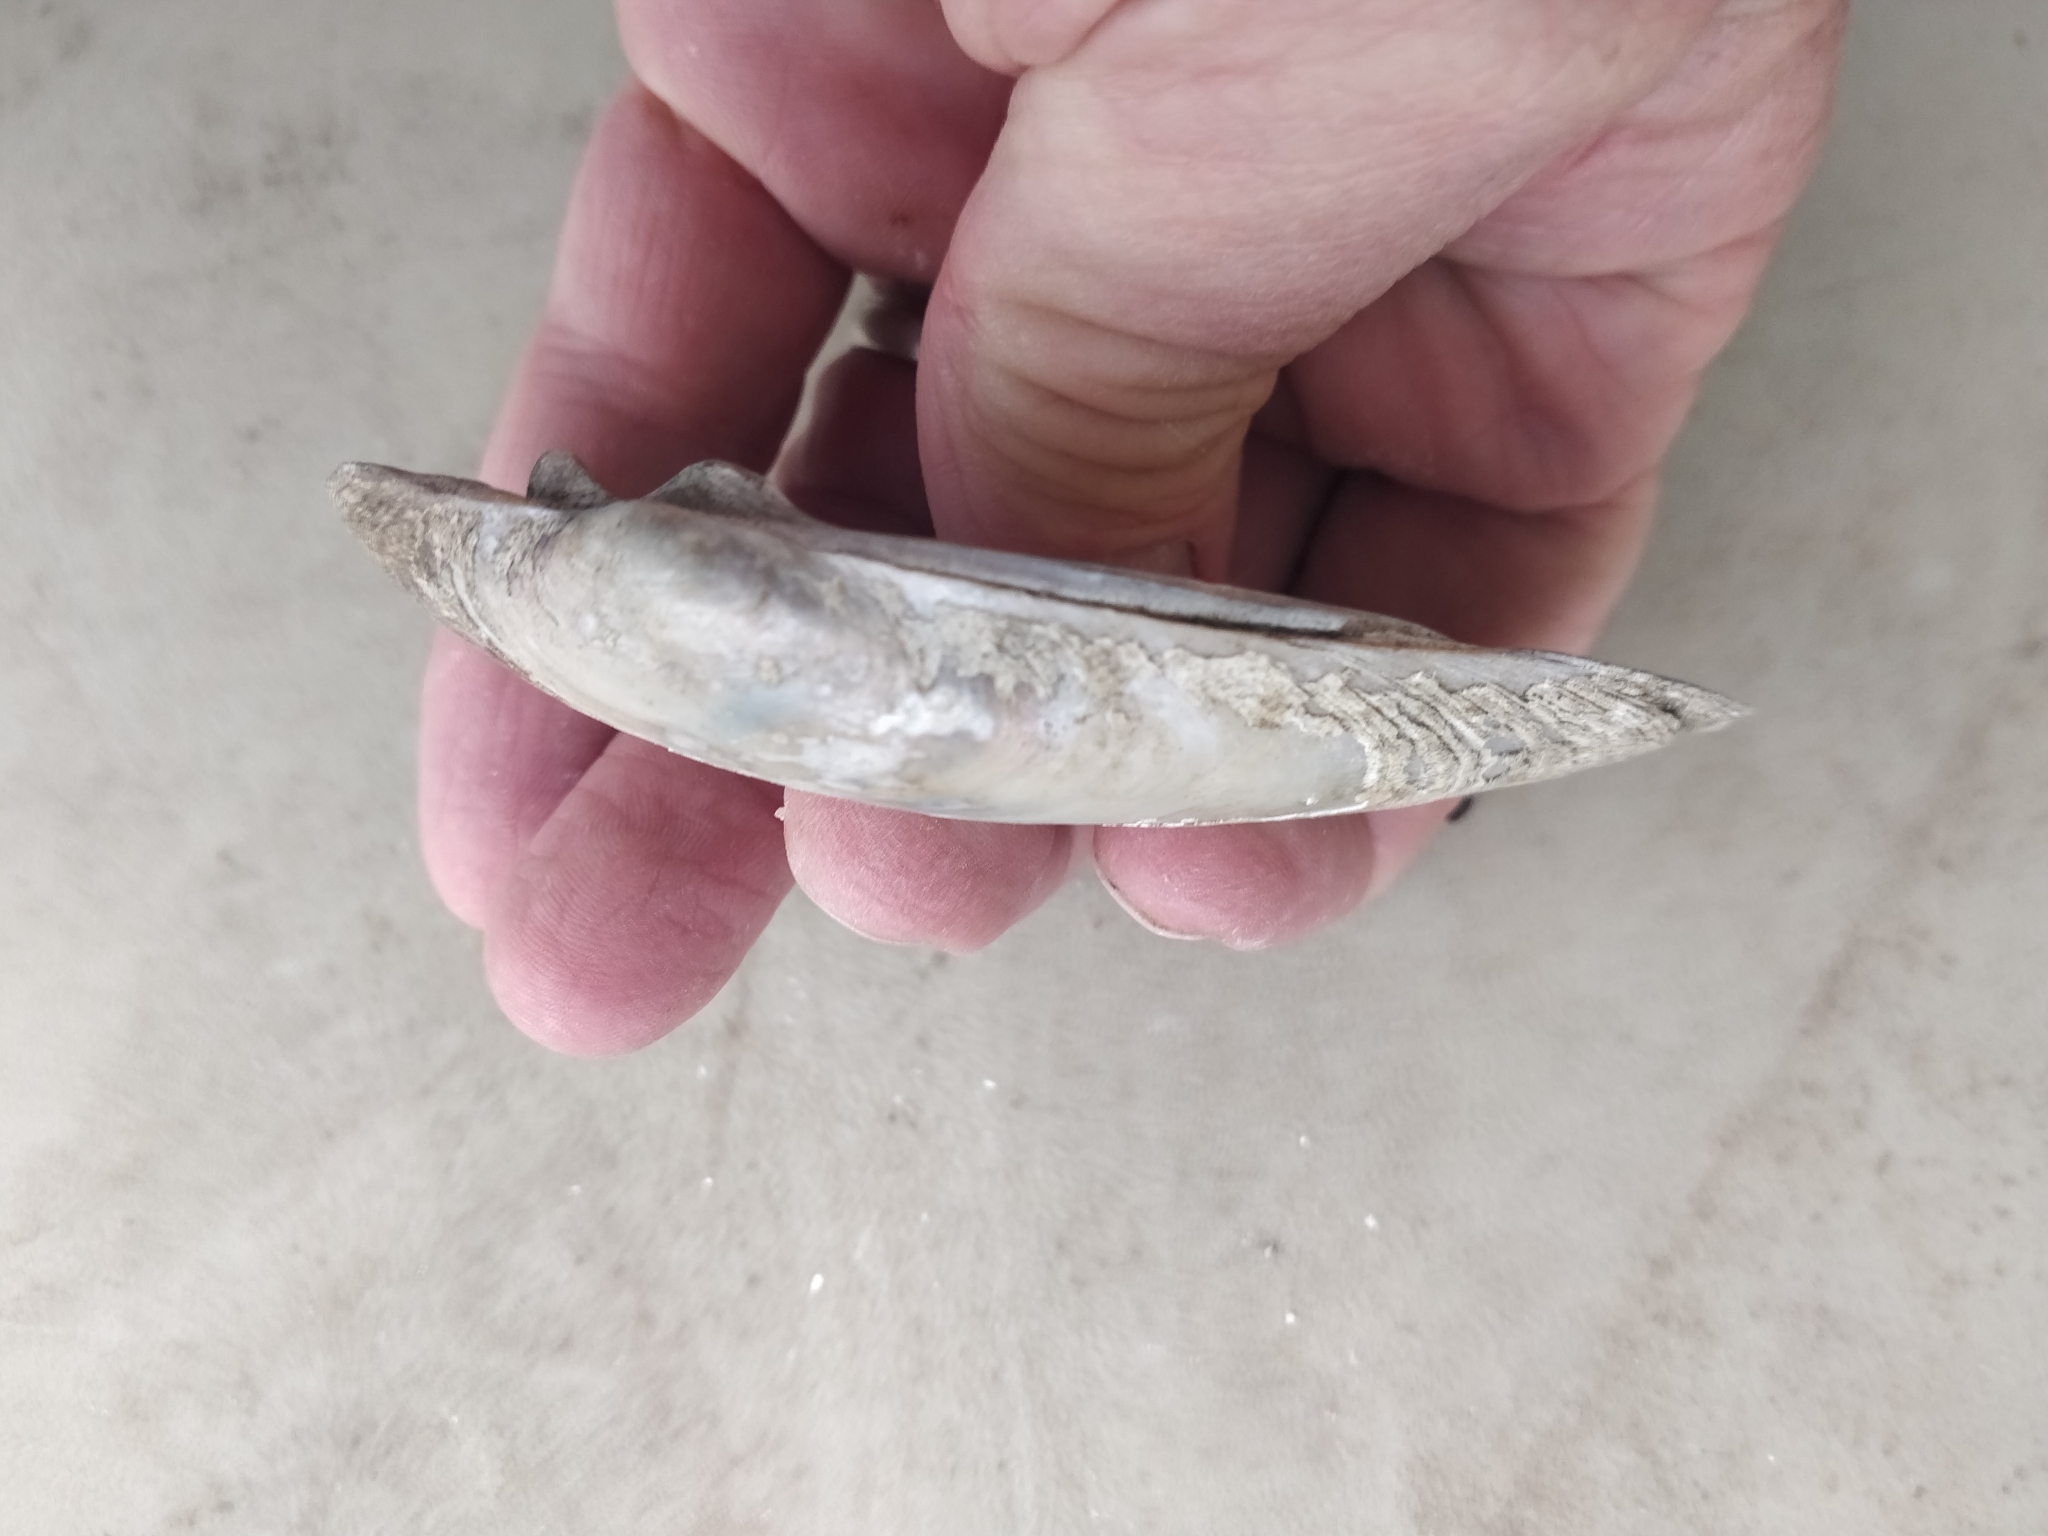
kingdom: Animalia
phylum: Mollusca
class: Bivalvia
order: Unionida
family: Unionidae
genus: Lampsilis
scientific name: Lampsilis siliquoidea
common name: Fatmucket
